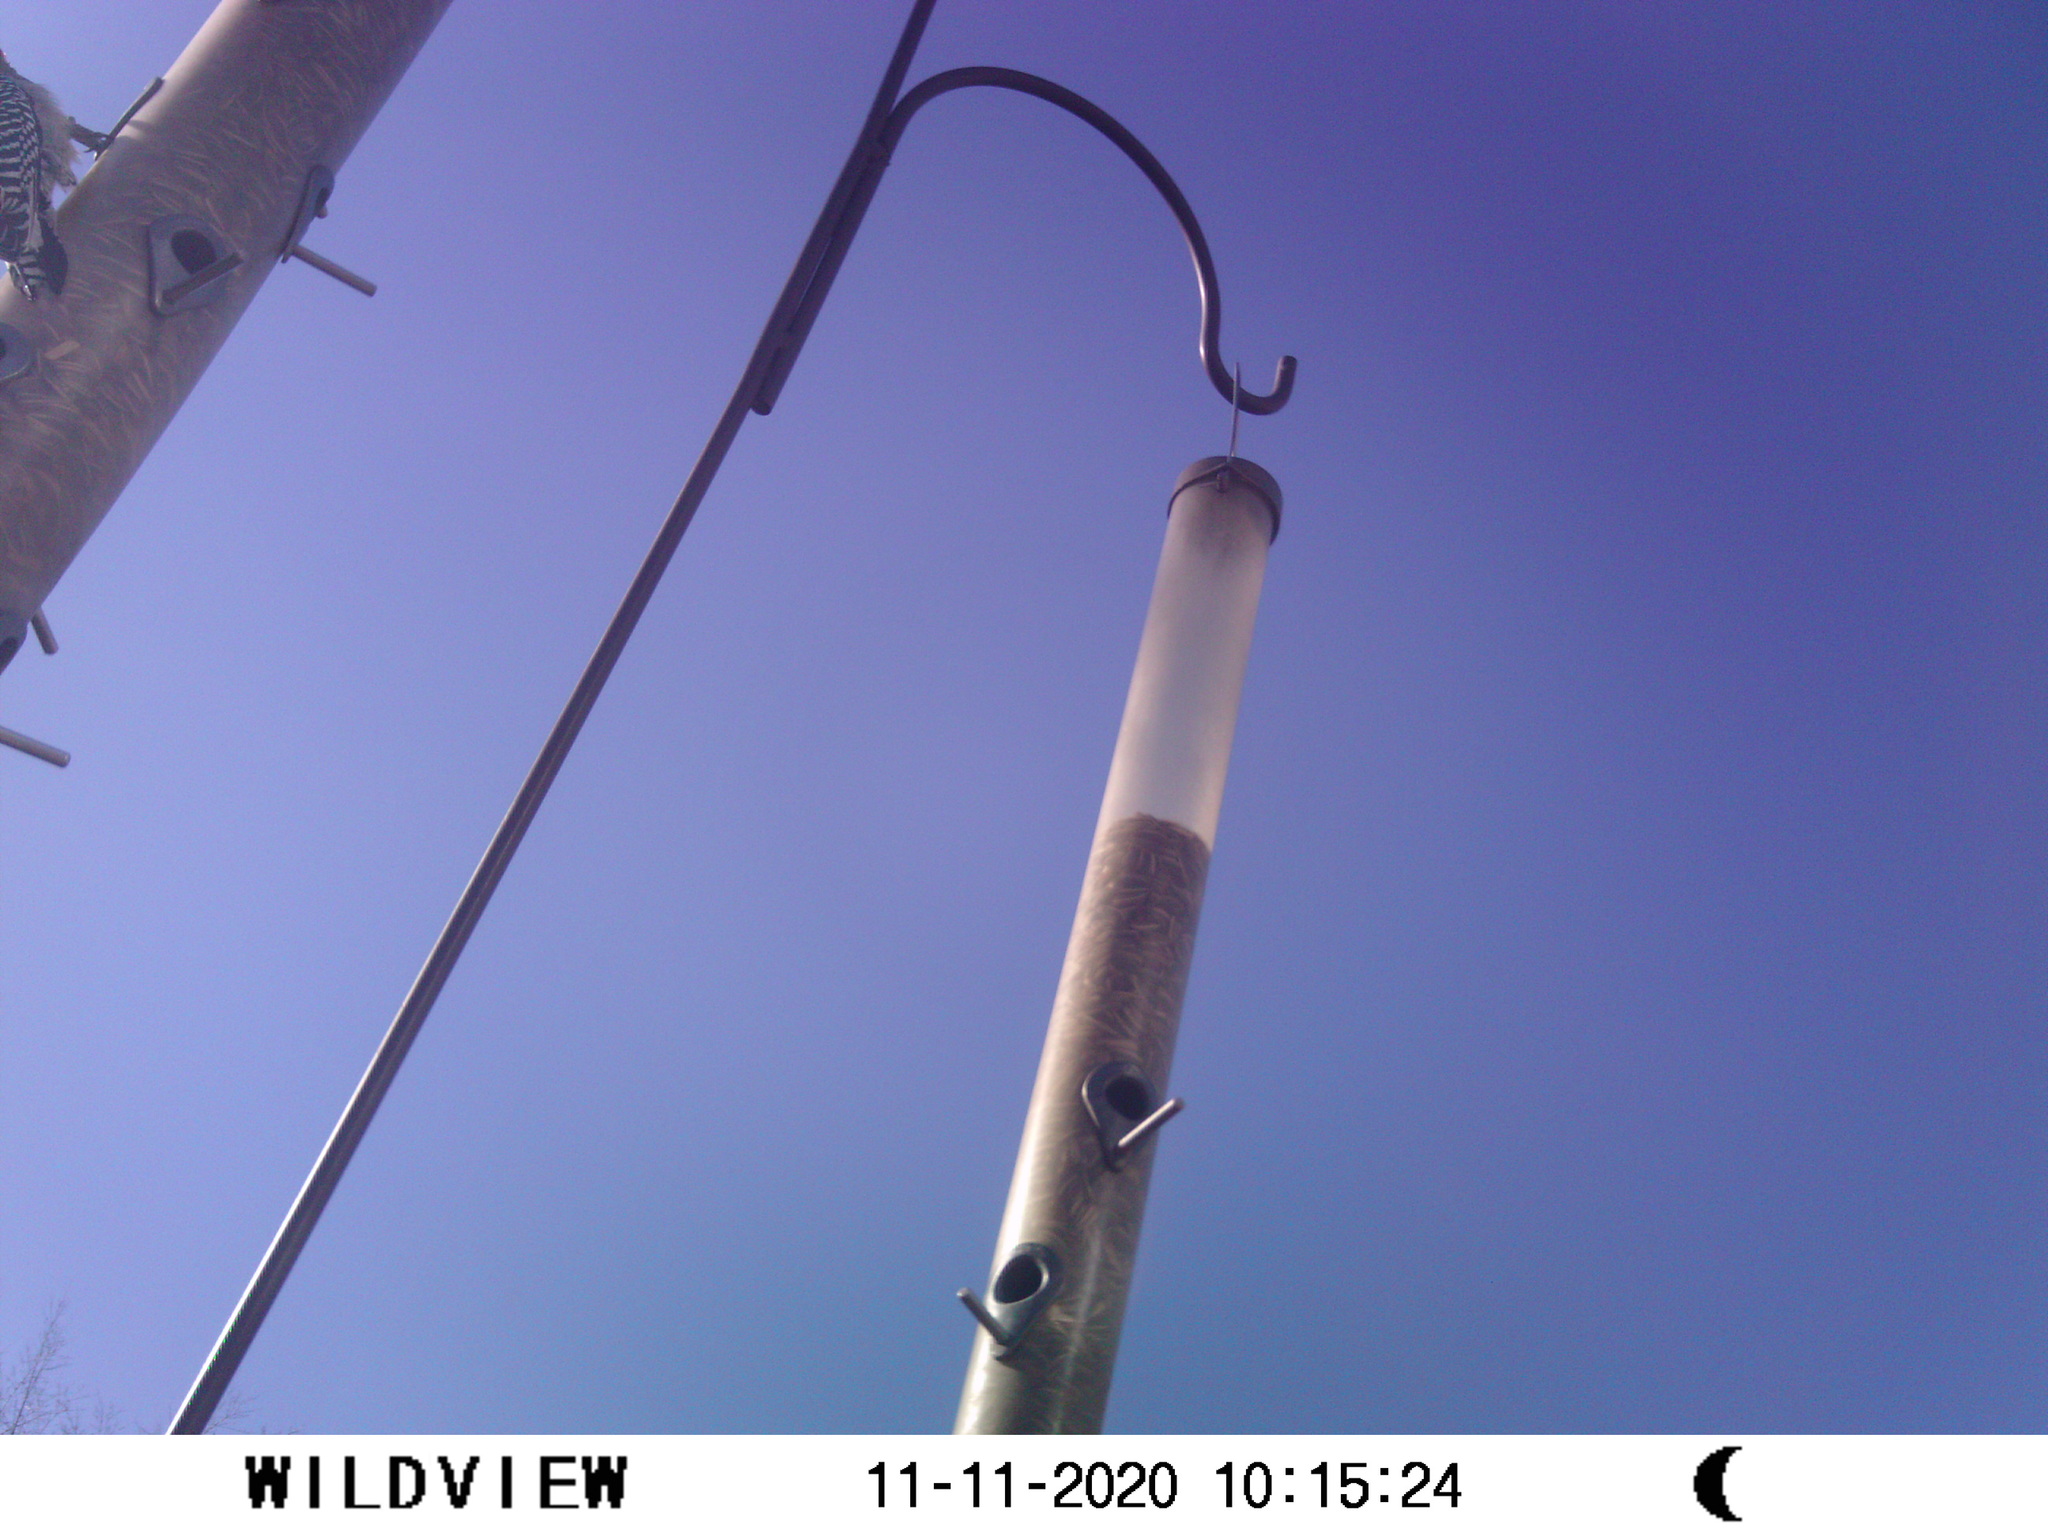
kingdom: Animalia
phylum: Chordata
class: Aves
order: Piciformes
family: Picidae
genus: Melanerpes
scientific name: Melanerpes carolinus
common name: Red-bellied woodpecker
